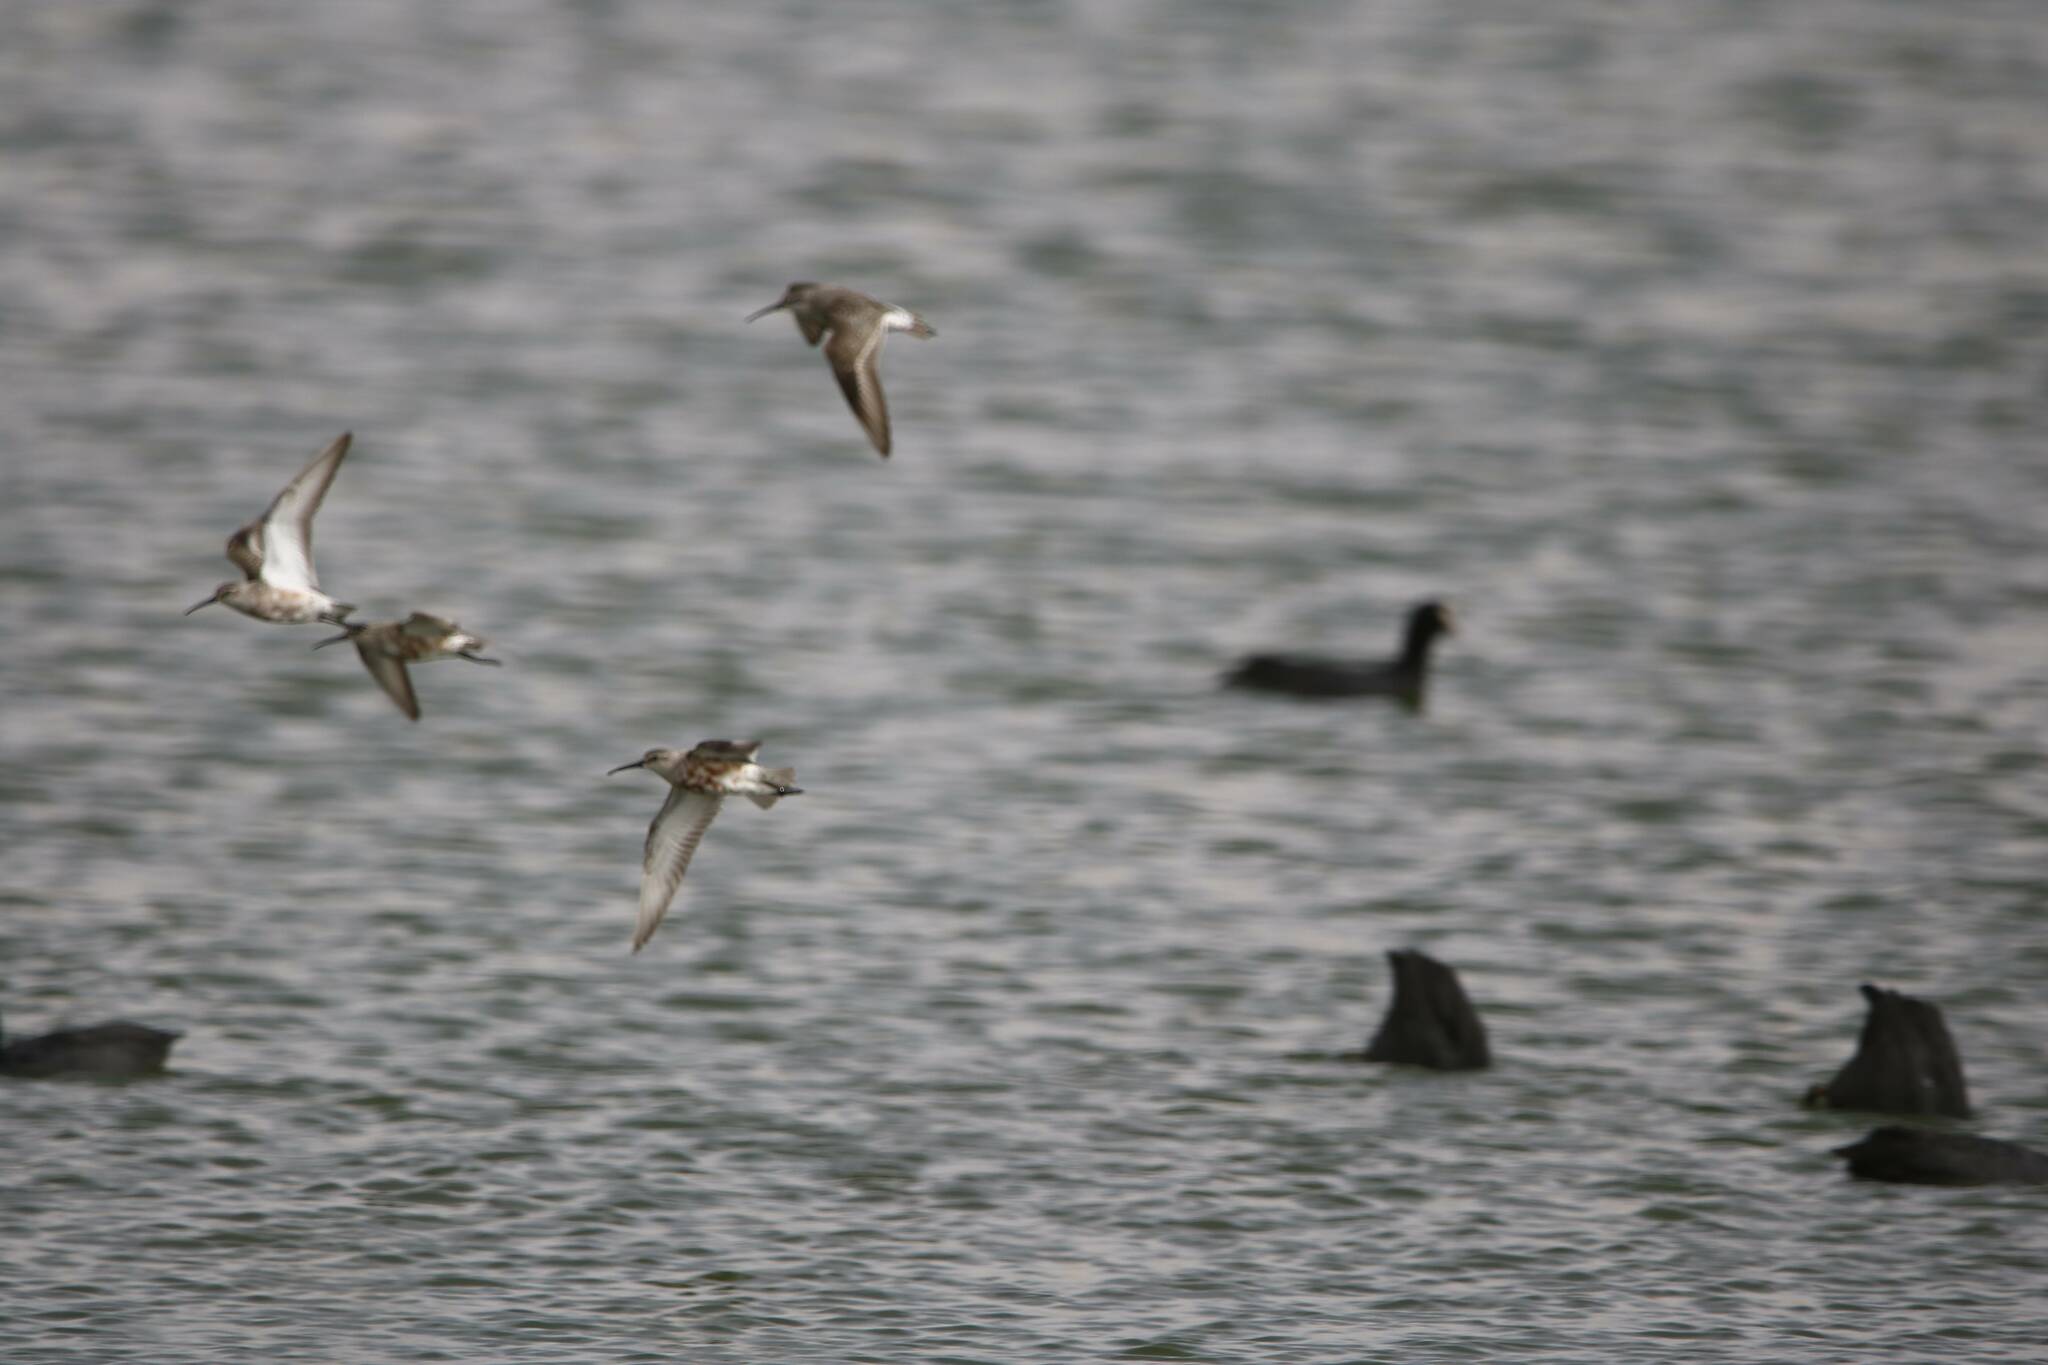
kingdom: Animalia
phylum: Chordata
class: Aves
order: Charadriiformes
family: Scolopacidae
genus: Calidris
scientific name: Calidris ferruginea
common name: Curlew sandpiper
